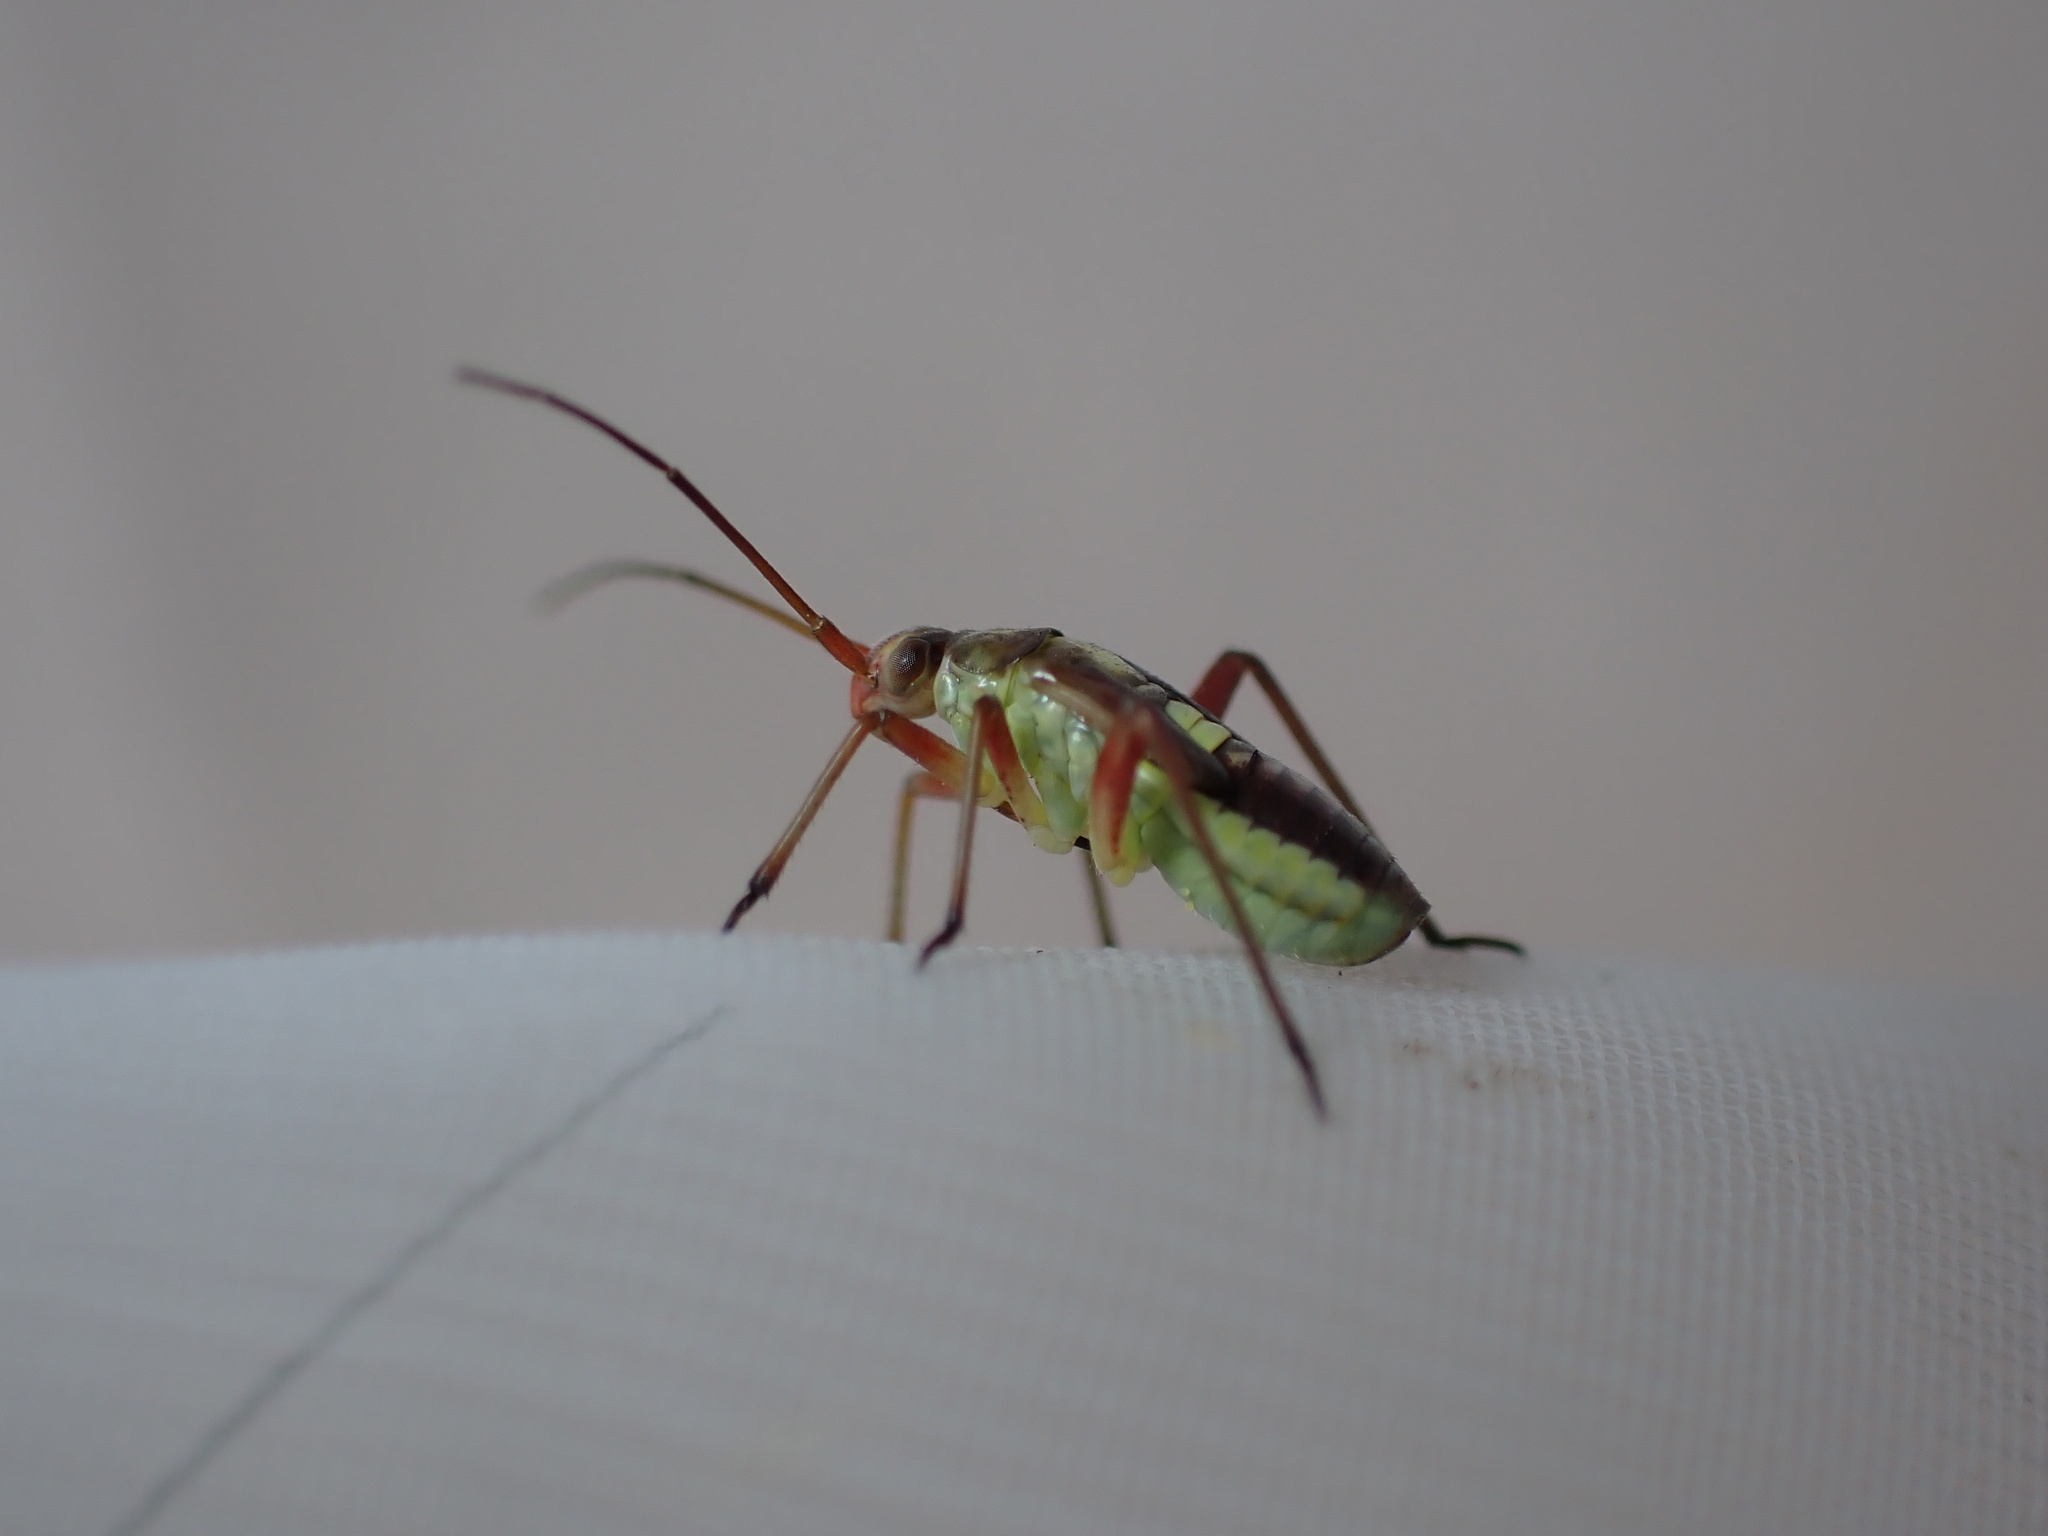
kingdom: Animalia
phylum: Arthropoda
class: Insecta
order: Hemiptera
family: Miridae
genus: Calocoris
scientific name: Calocoris roseomaculatus
